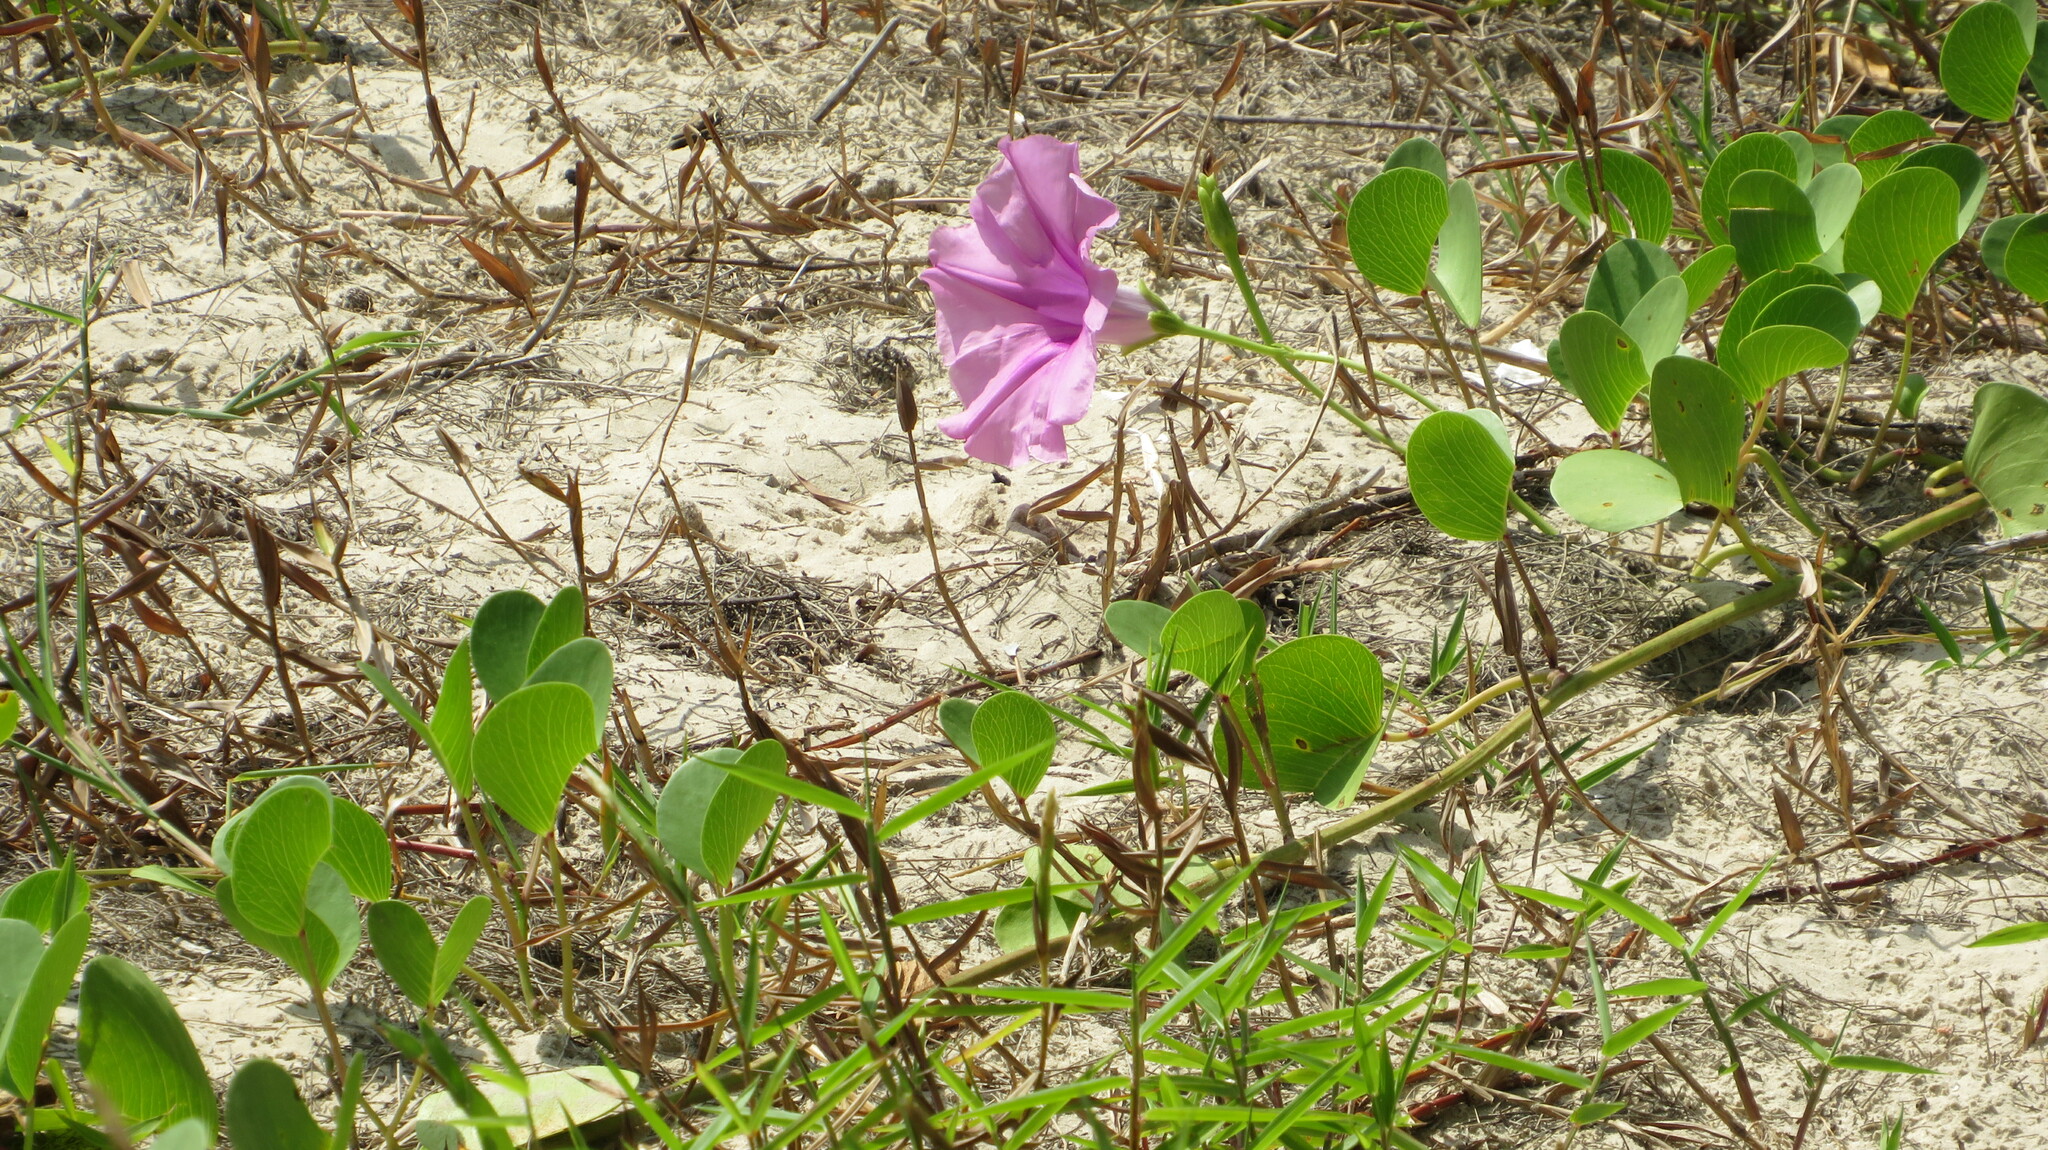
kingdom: Plantae
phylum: Tracheophyta
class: Magnoliopsida
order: Solanales
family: Convolvulaceae
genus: Ipomoea
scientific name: Ipomoea pes-caprae
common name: Beach morning glory
